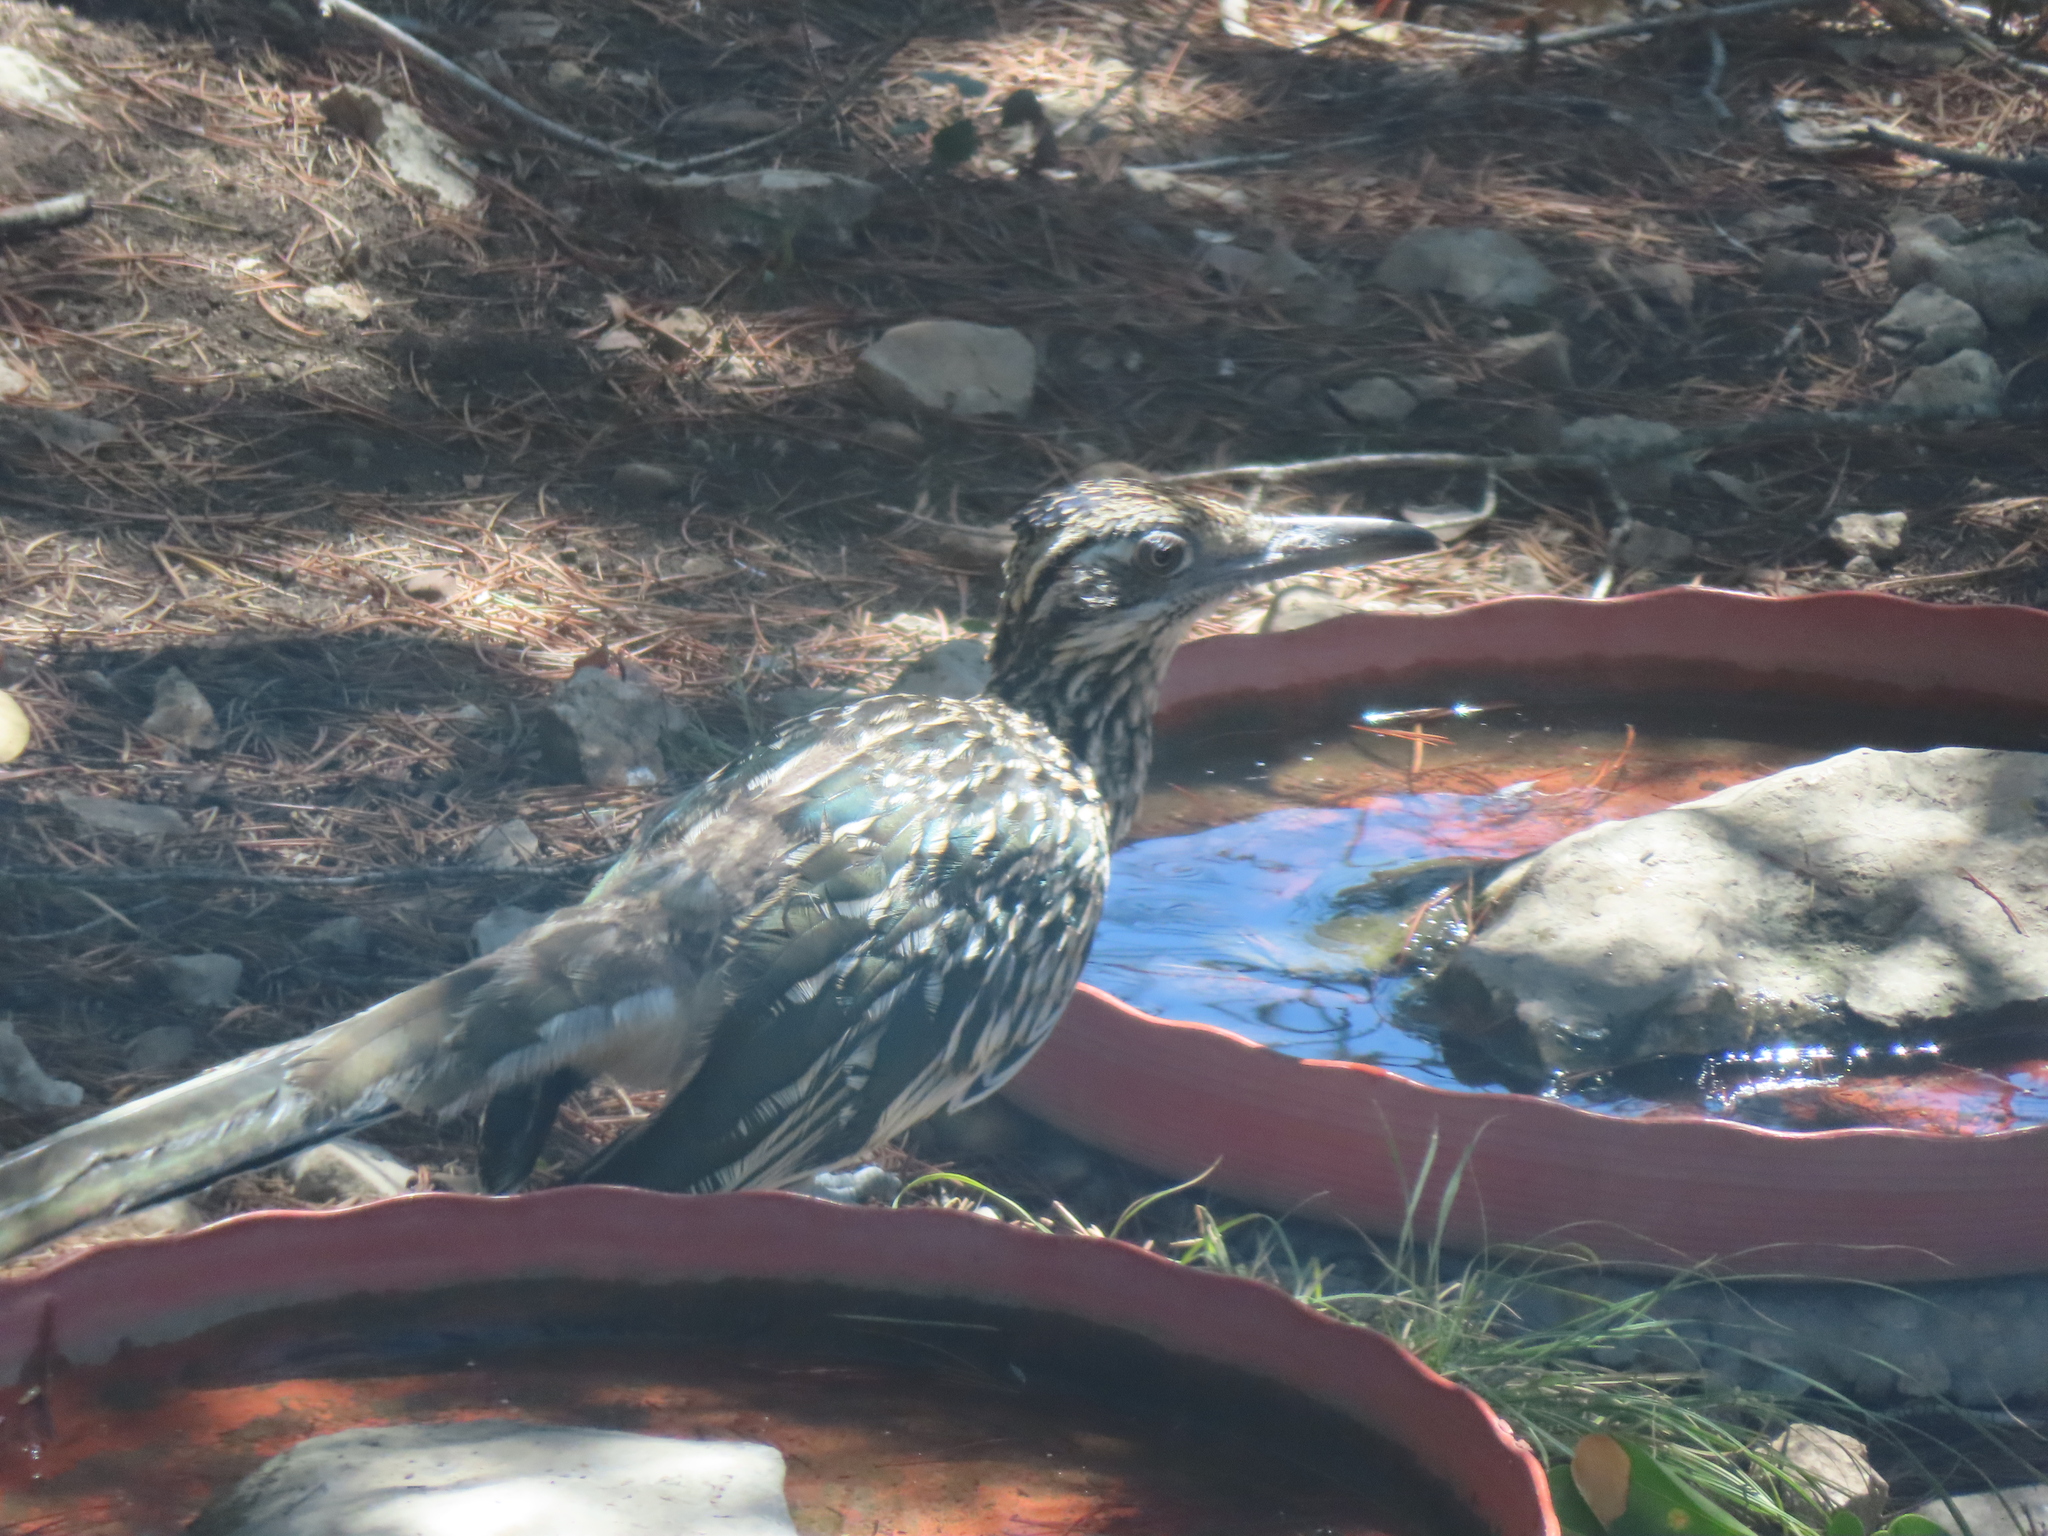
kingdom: Animalia
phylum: Chordata
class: Aves
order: Cuculiformes
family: Cuculidae
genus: Geococcyx
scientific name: Geococcyx californianus
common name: Greater roadrunner
